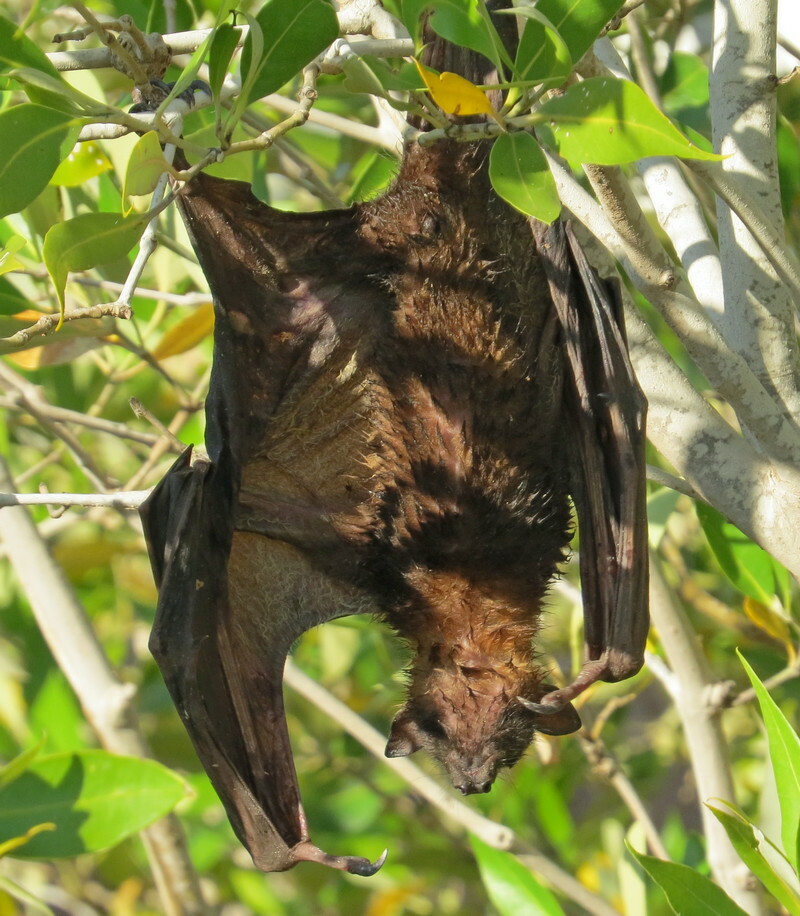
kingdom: Animalia
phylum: Chordata
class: Mammalia
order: Chiroptera
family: Pteropodidae
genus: Pteropus
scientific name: Pteropus scapulatus
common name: Little red flying fox
